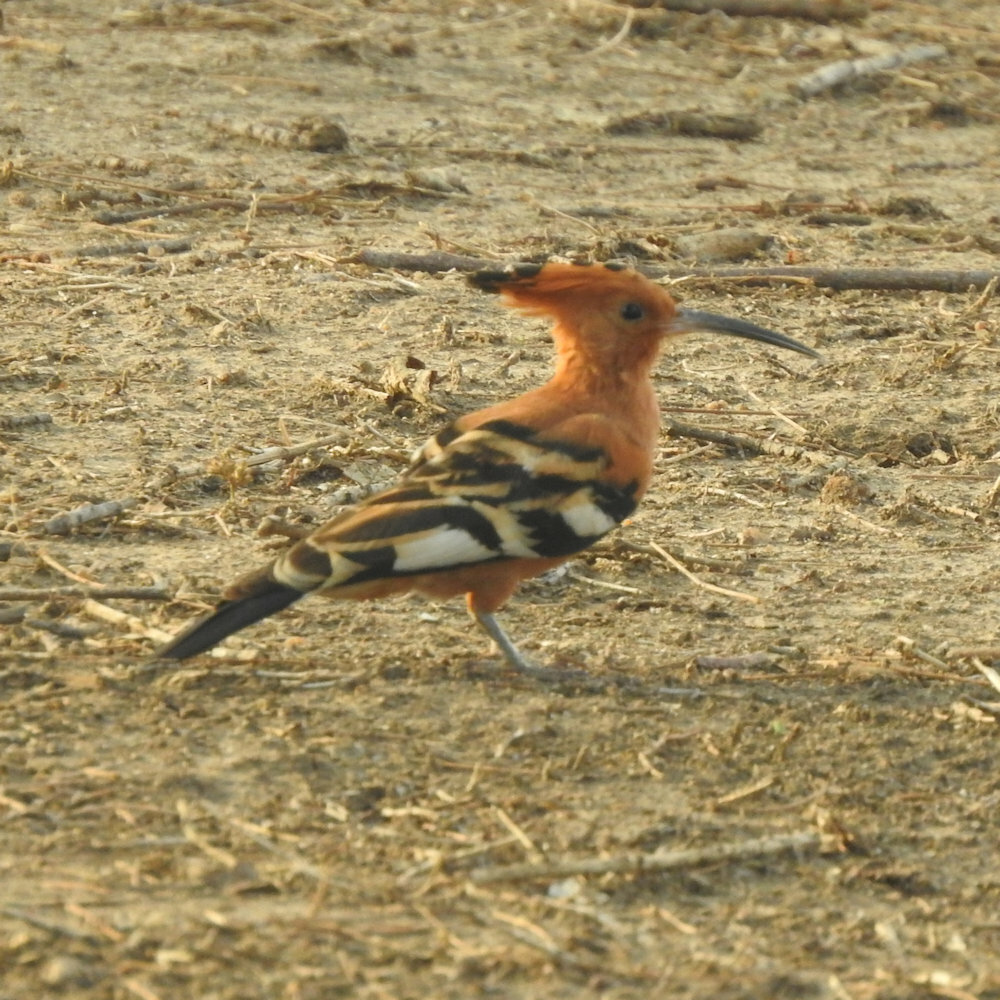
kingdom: Animalia
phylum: Chordata
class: Aves
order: Bucerotiformes
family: Upupidae
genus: Upupa
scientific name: Upupa epops
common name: Eurasian hoopoe
